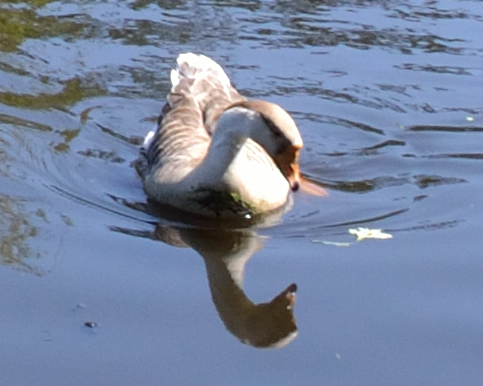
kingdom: Animalia
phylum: Chordata
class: Aves
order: Anseriformes
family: Anatidae
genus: Anser
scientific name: Anser
